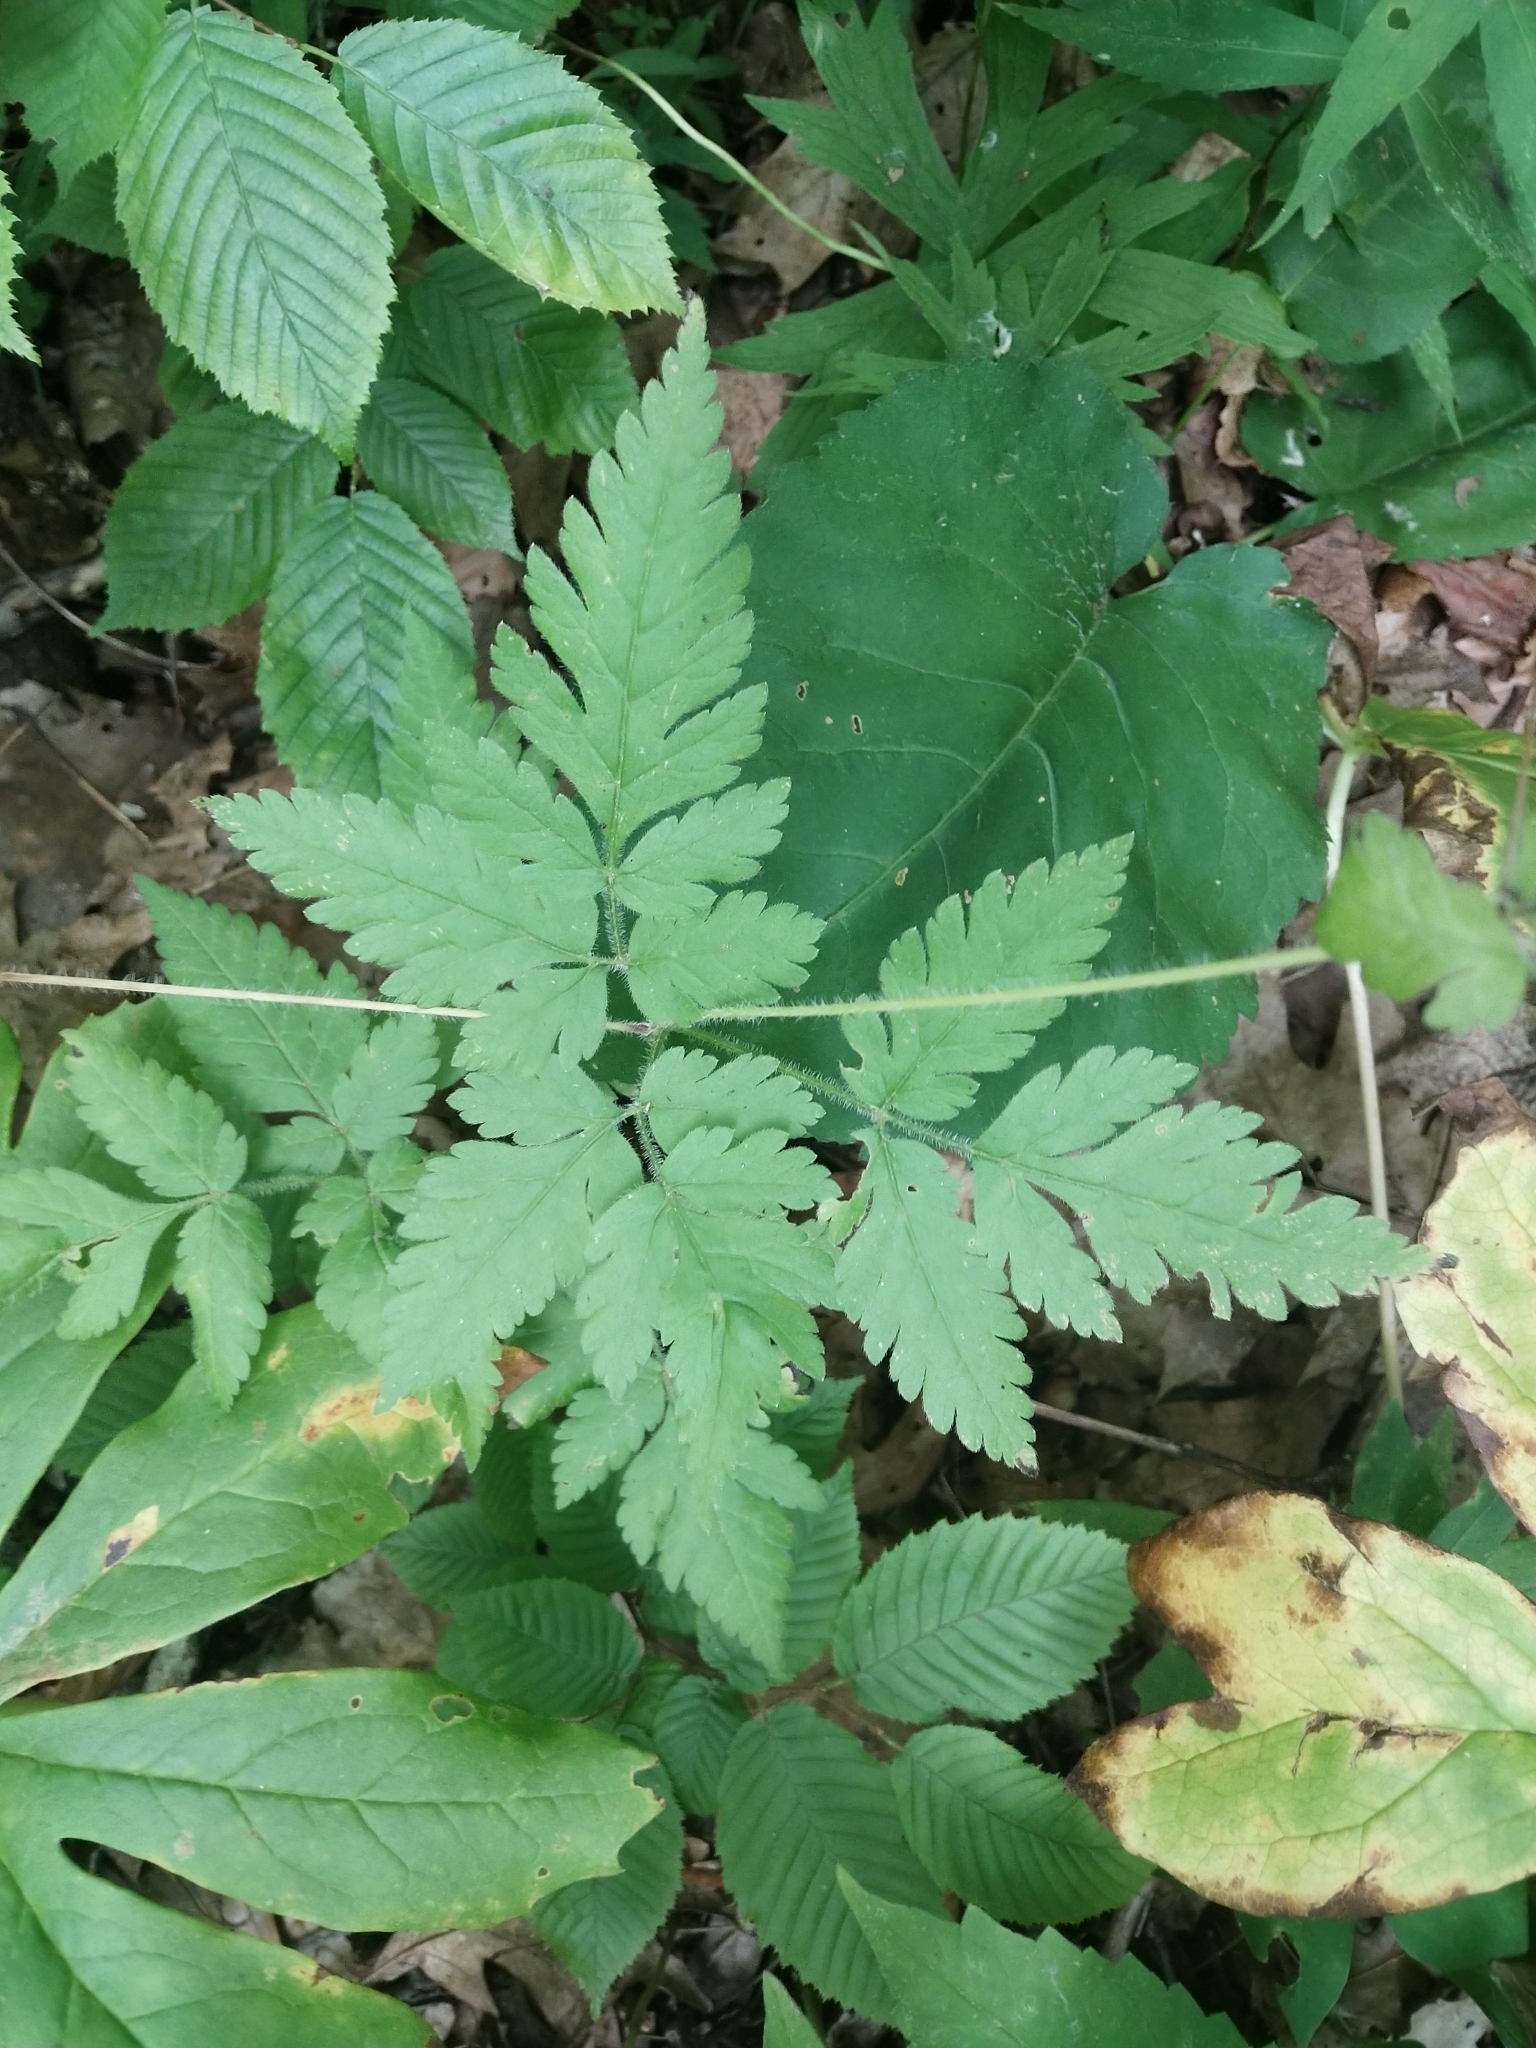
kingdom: Plantae
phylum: Tracheophyta
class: Magnoliopsida
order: Apiales
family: Apiaceae
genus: Osmorhiza
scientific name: Osmorhiza claytonii
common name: Hairy sweet cicely
